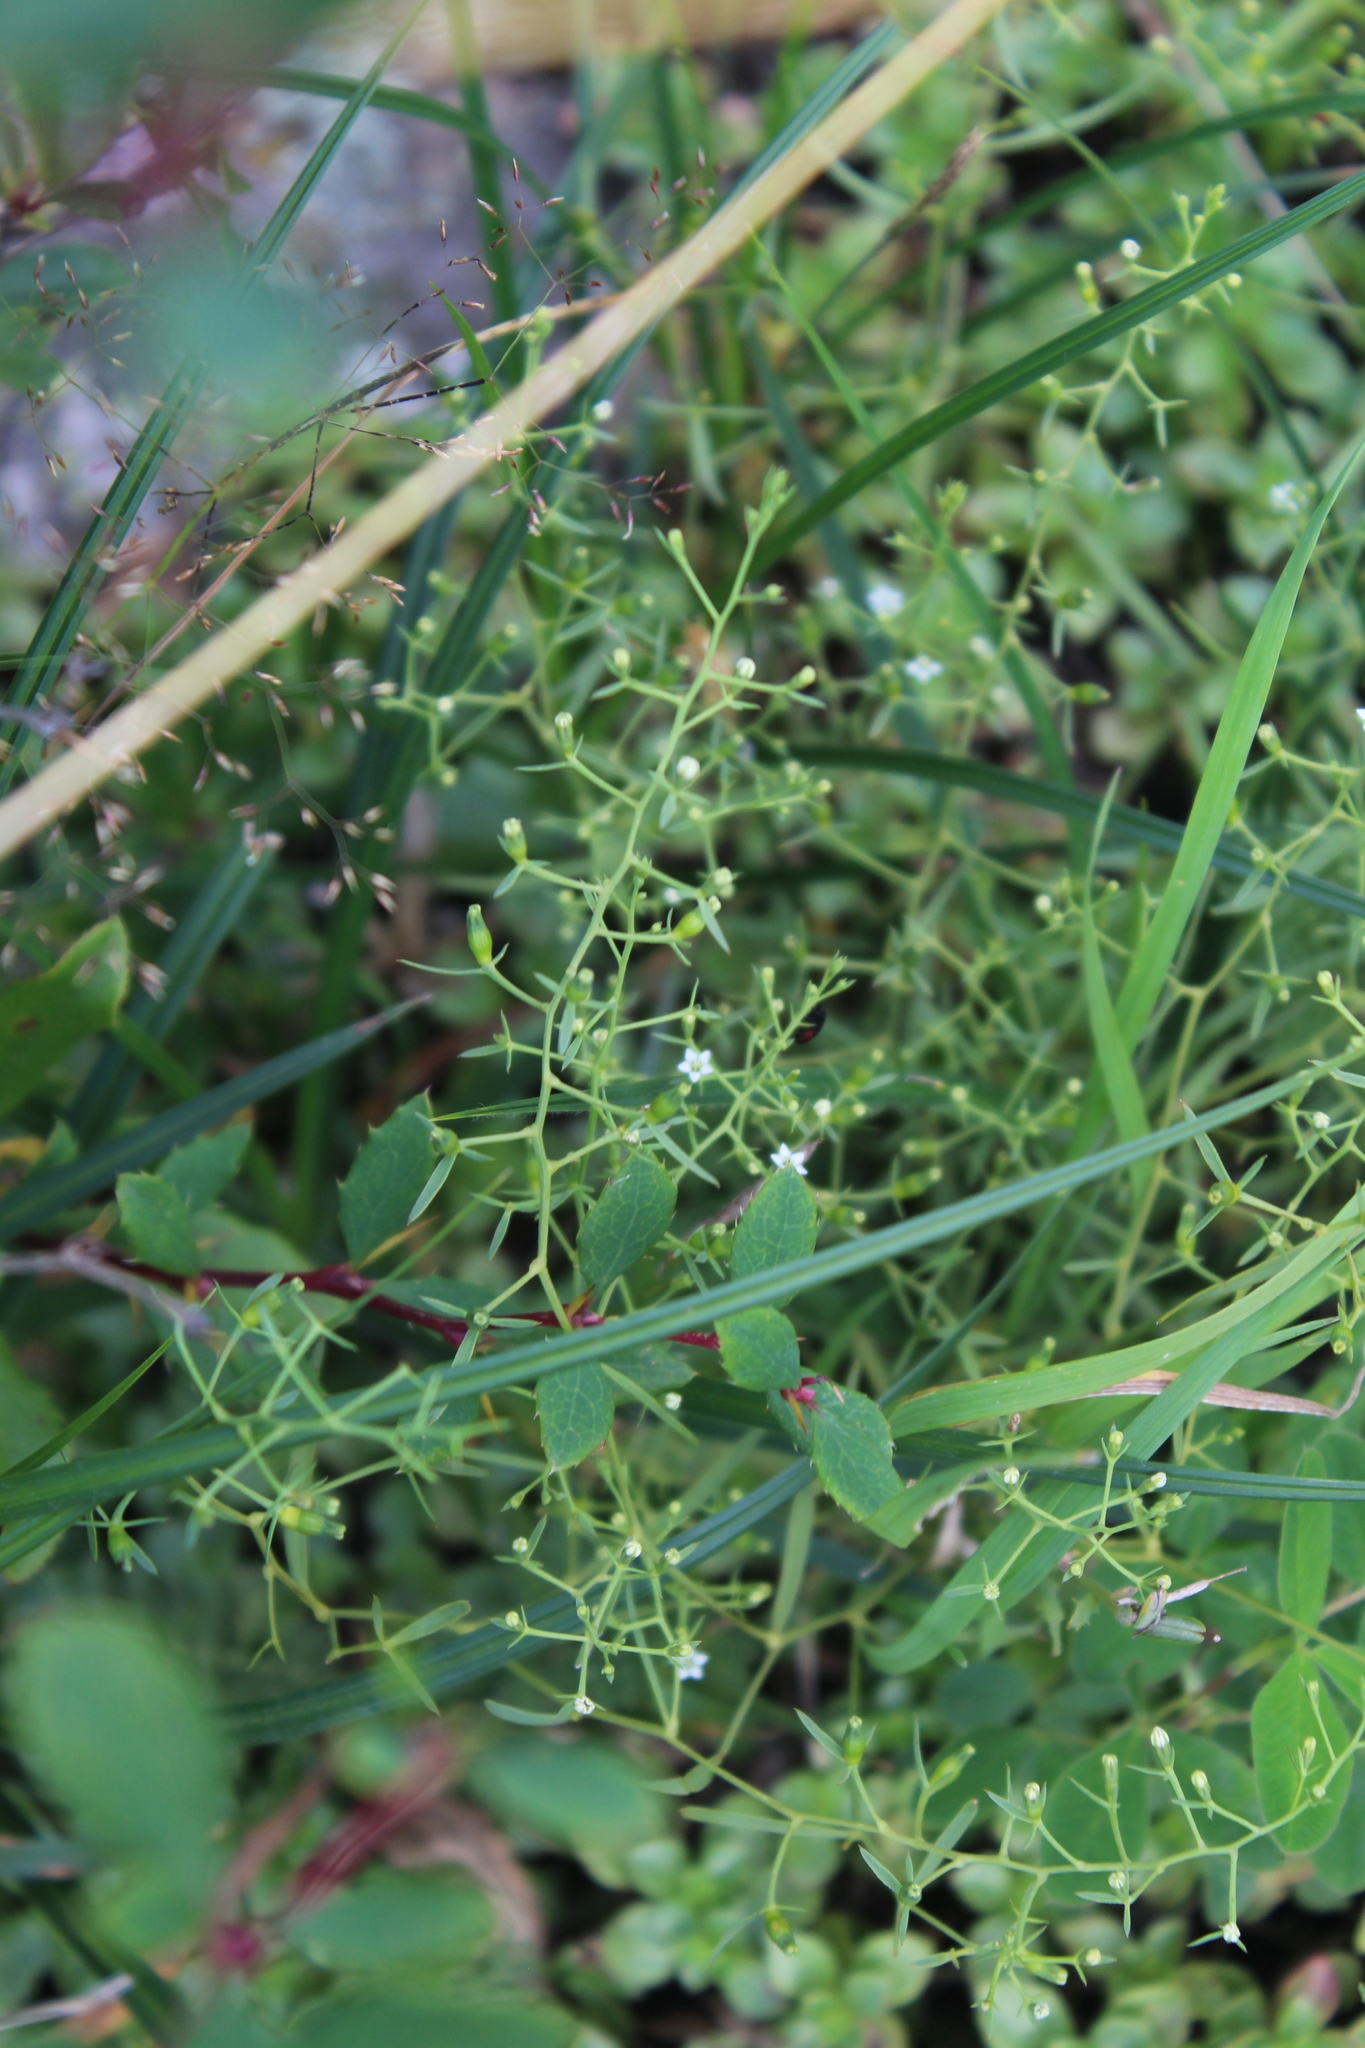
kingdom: Plantae
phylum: Tracheophyta
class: Magnoliopsida
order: Santalales
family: Thesiaceae
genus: Thesium
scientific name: Thesium ramosum
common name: Field thesium
